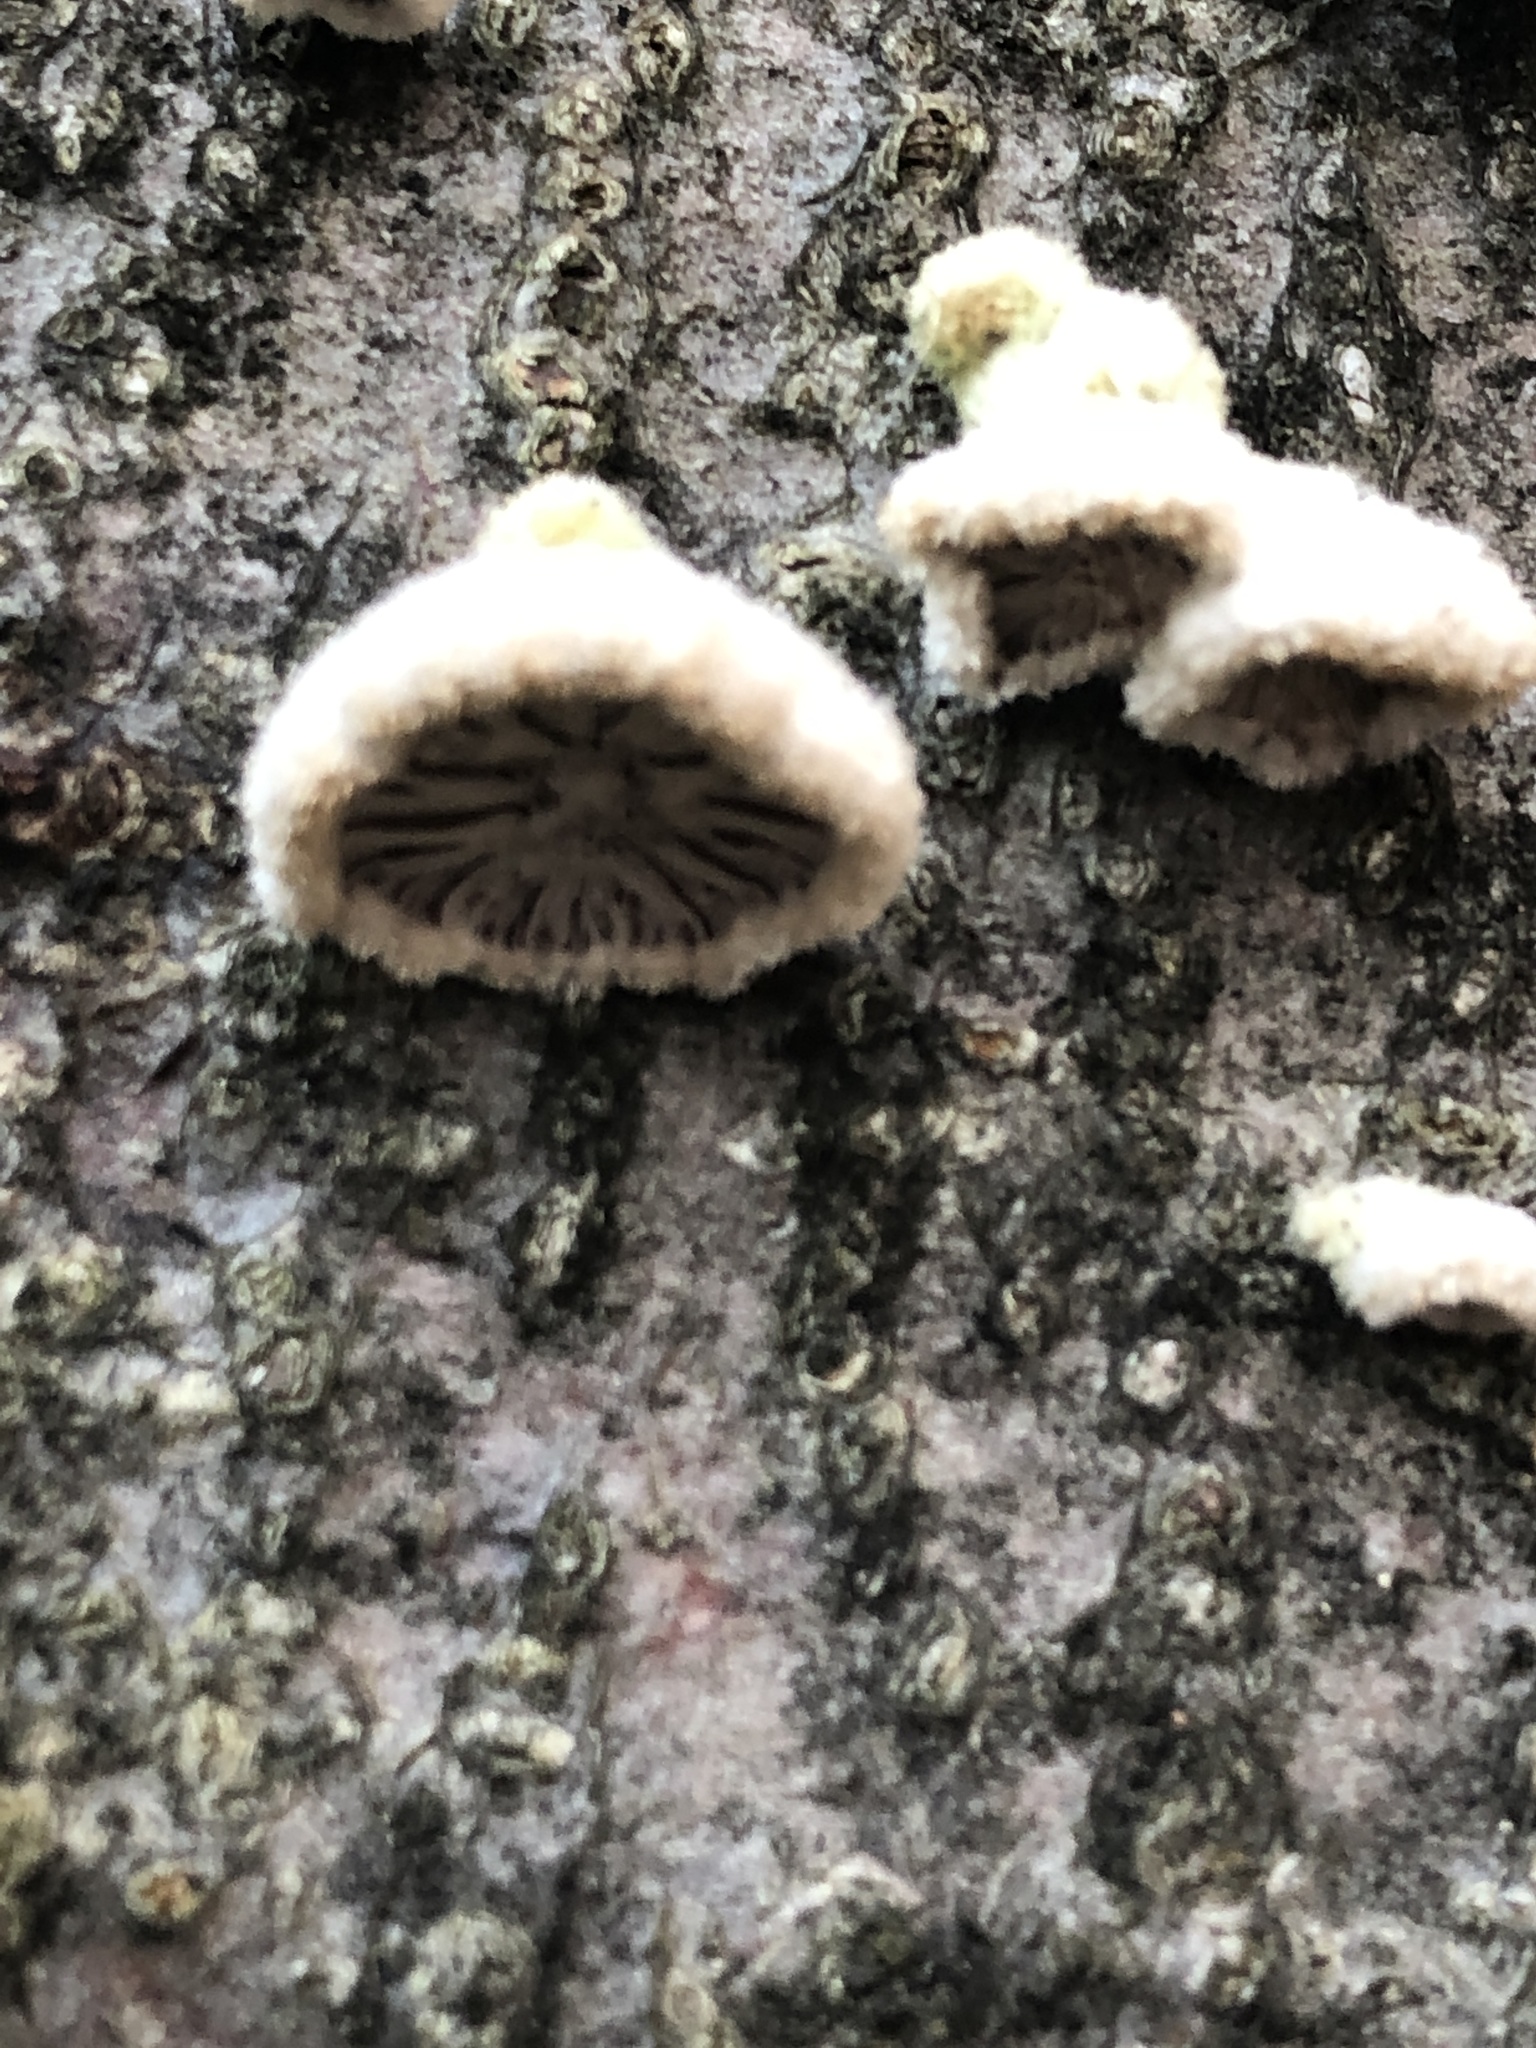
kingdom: Fungi
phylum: Basidiomycota
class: Agaricomycetes
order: Agaricales
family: Schizophyllaceae
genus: Schizophyllum
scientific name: Schizophyllum commune
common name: Common porecrust
